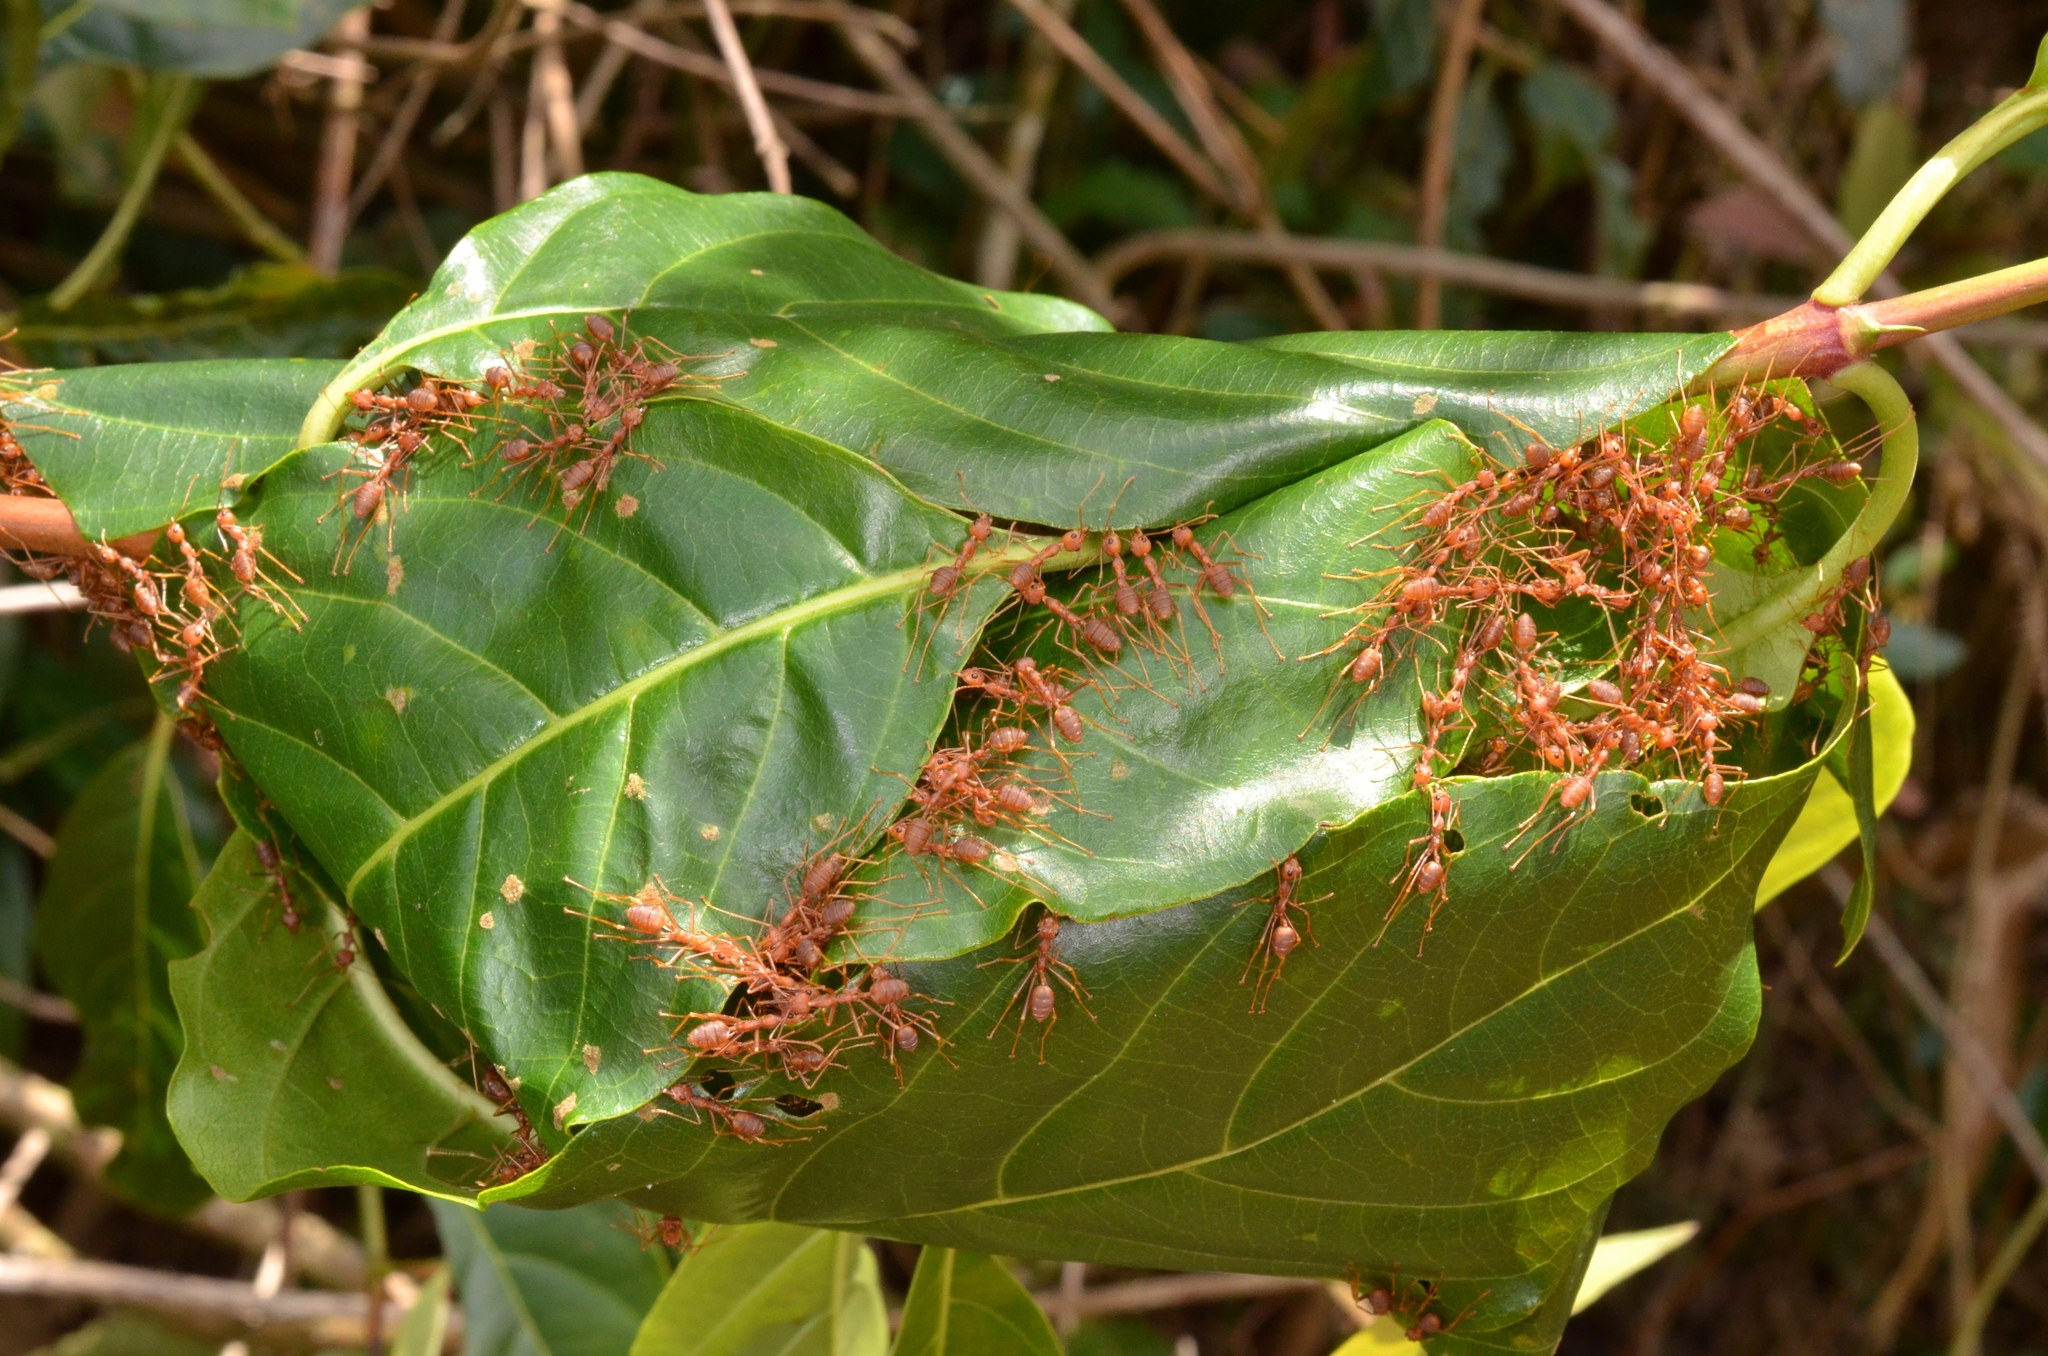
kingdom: Animalia
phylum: Arthropoda
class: Insecta
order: Hymenoptera
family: Formicidae
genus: Oecophylla
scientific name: Oecophylla smaragdina
